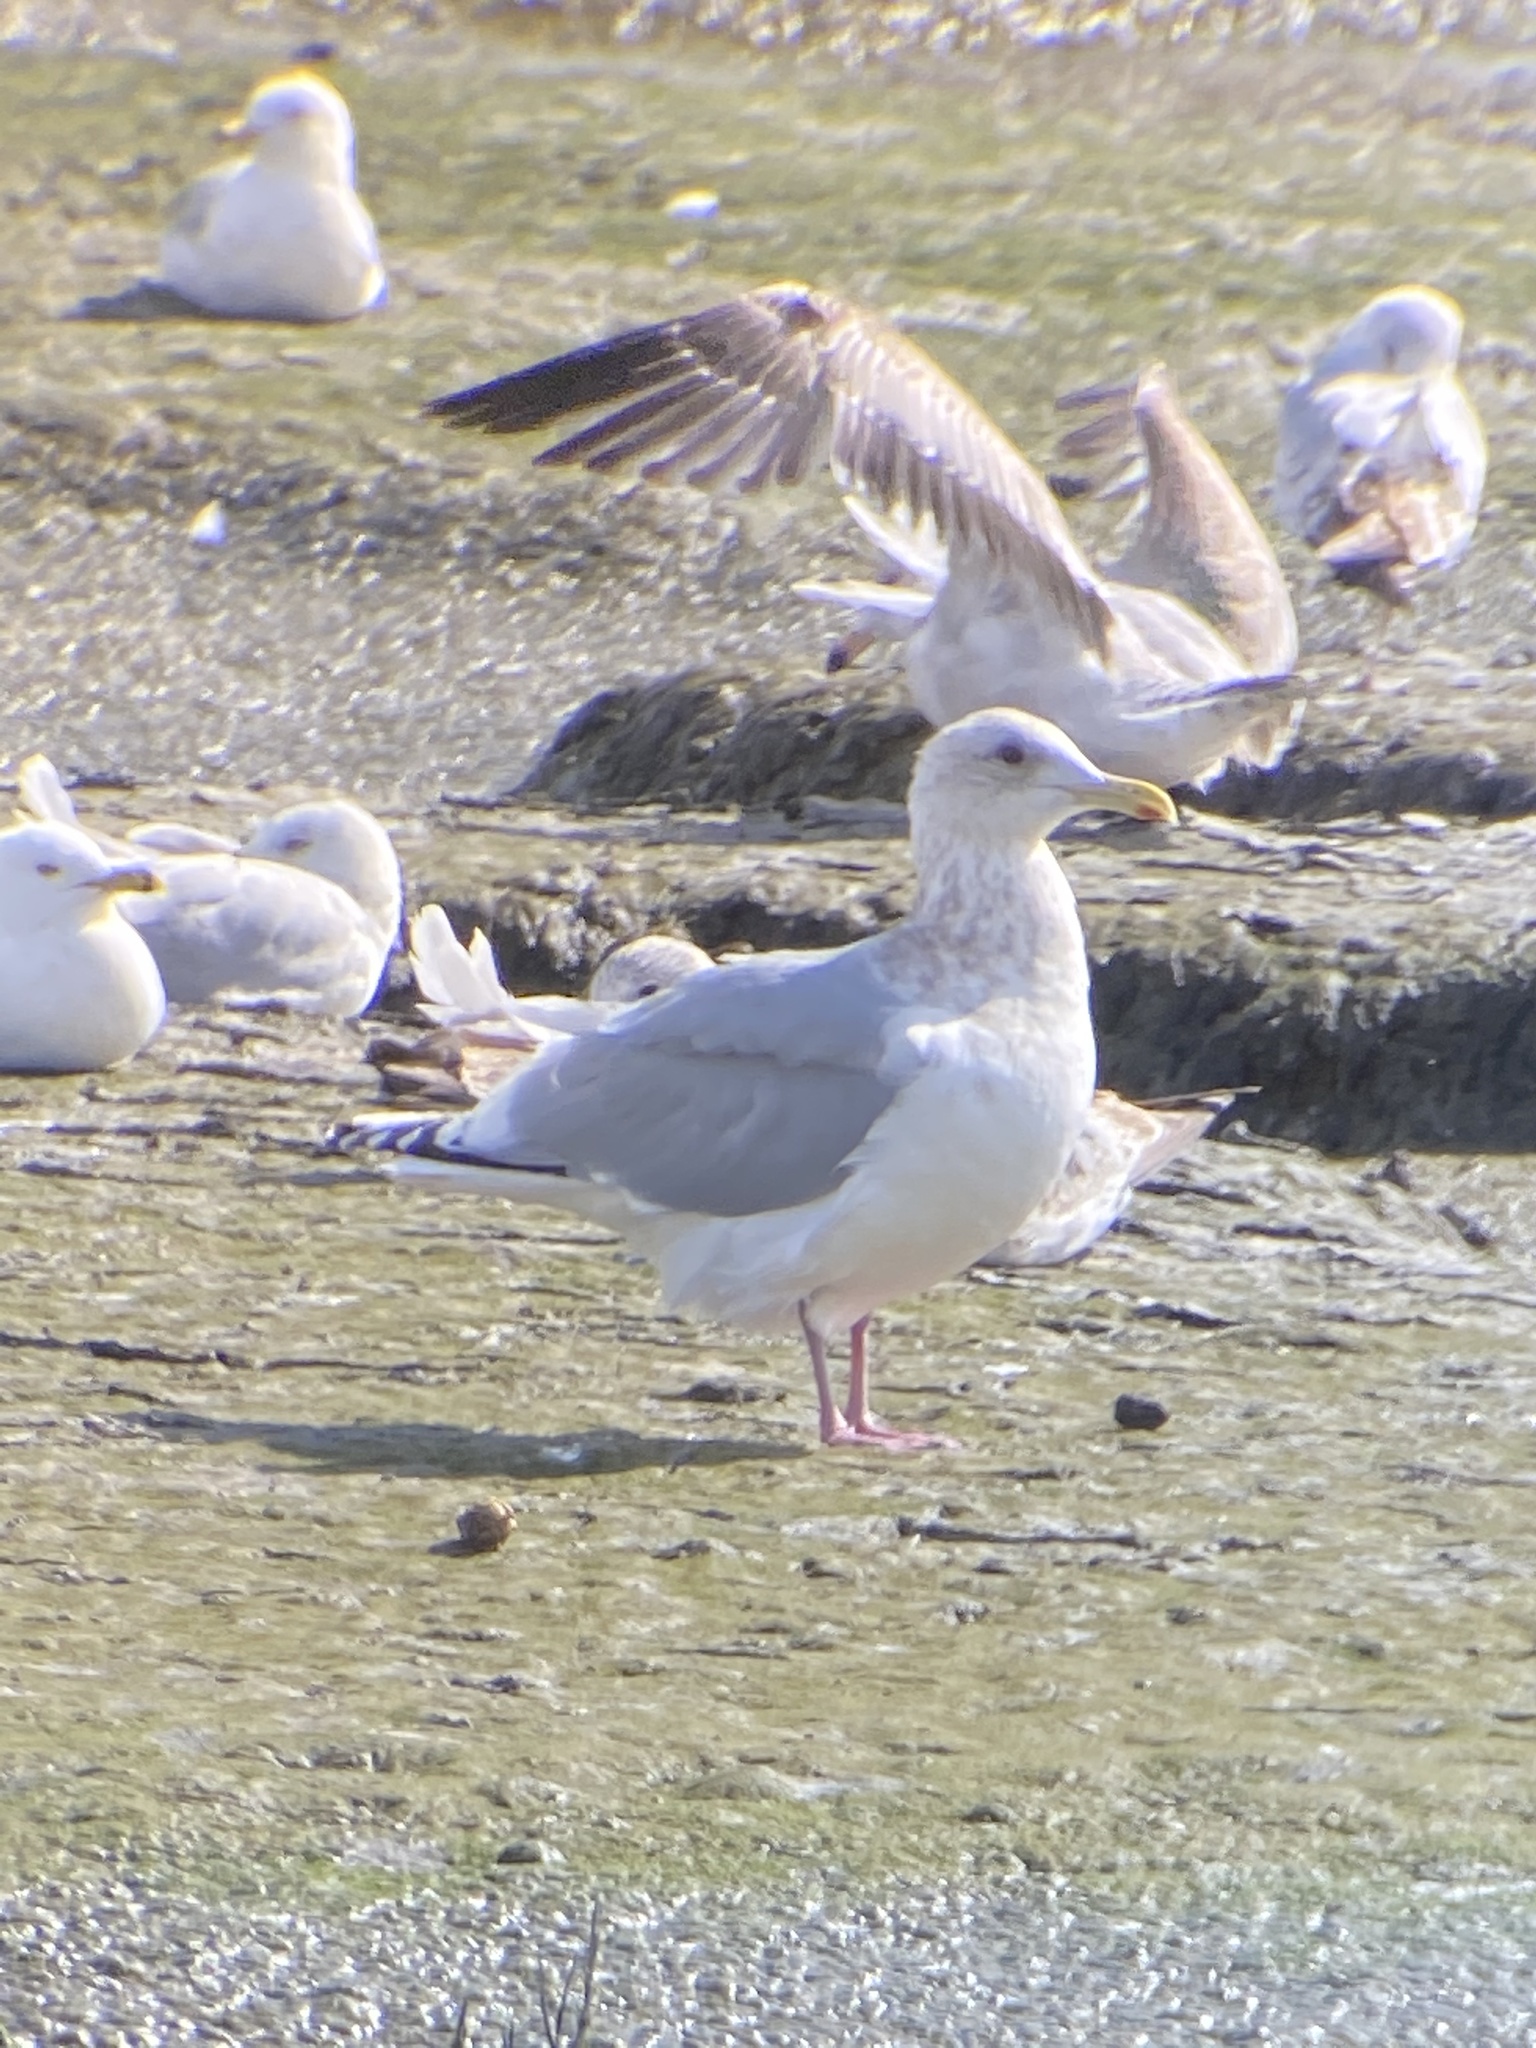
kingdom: Animalia
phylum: Chordata
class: Aves
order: Charadriiformes
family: Laridae
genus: Larus
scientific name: Larus
